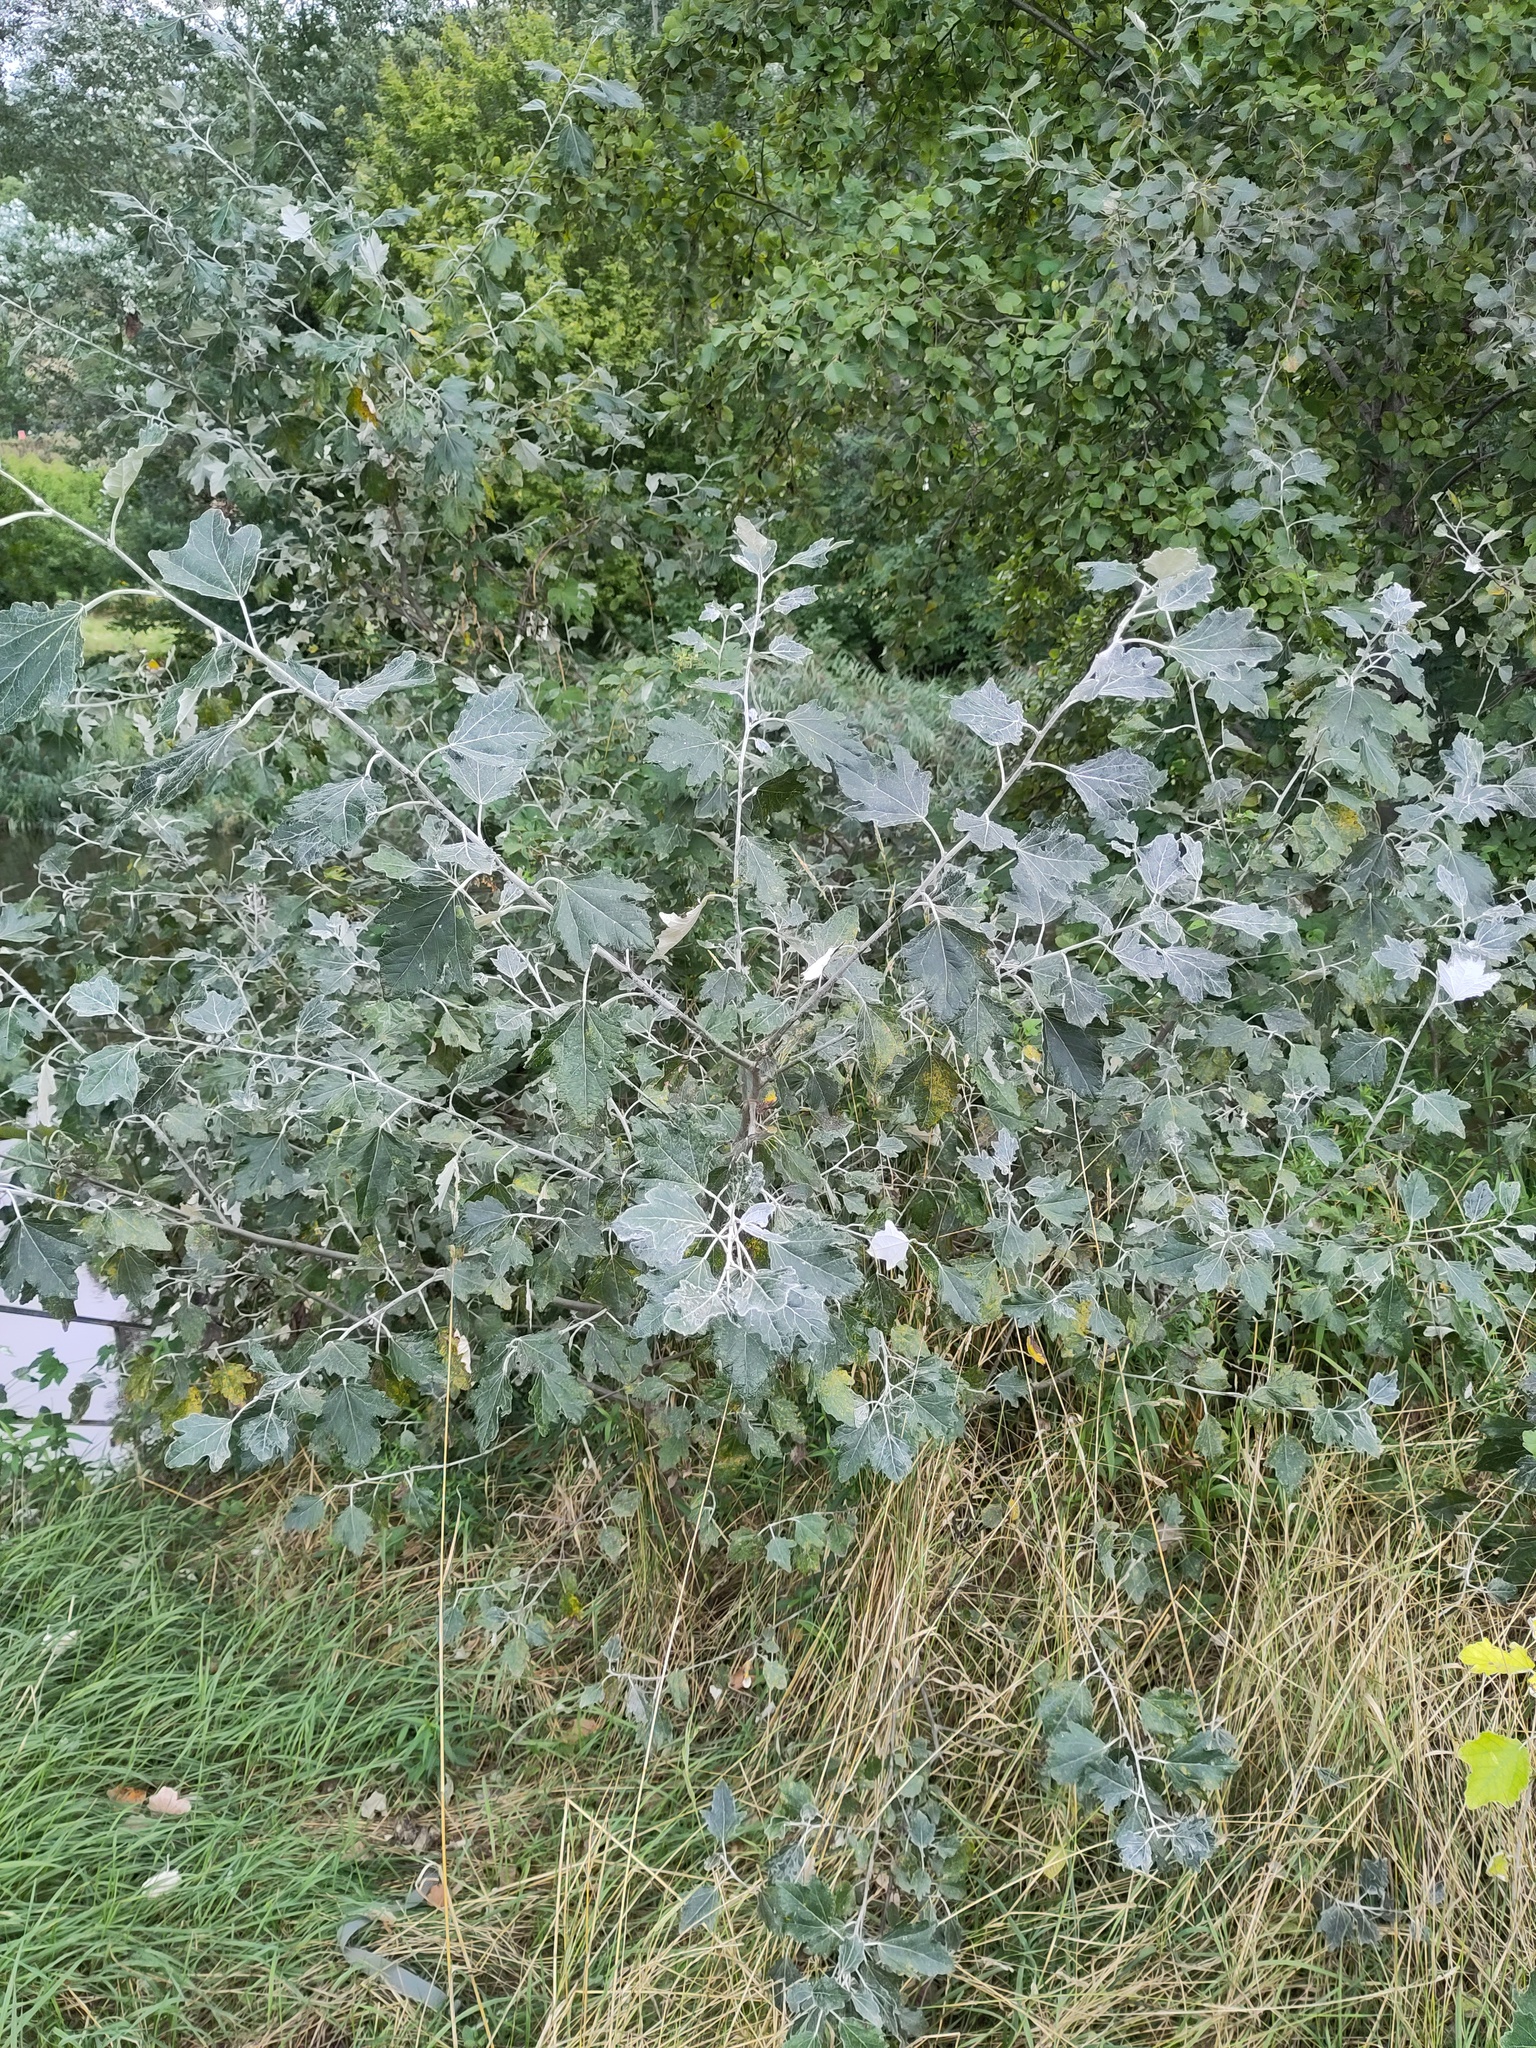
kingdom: Plantae
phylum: Tracheophyta
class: Magnoliopsida
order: Malpighiales
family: Salicaceae
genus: Populus
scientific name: Populus alba
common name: White poplar
